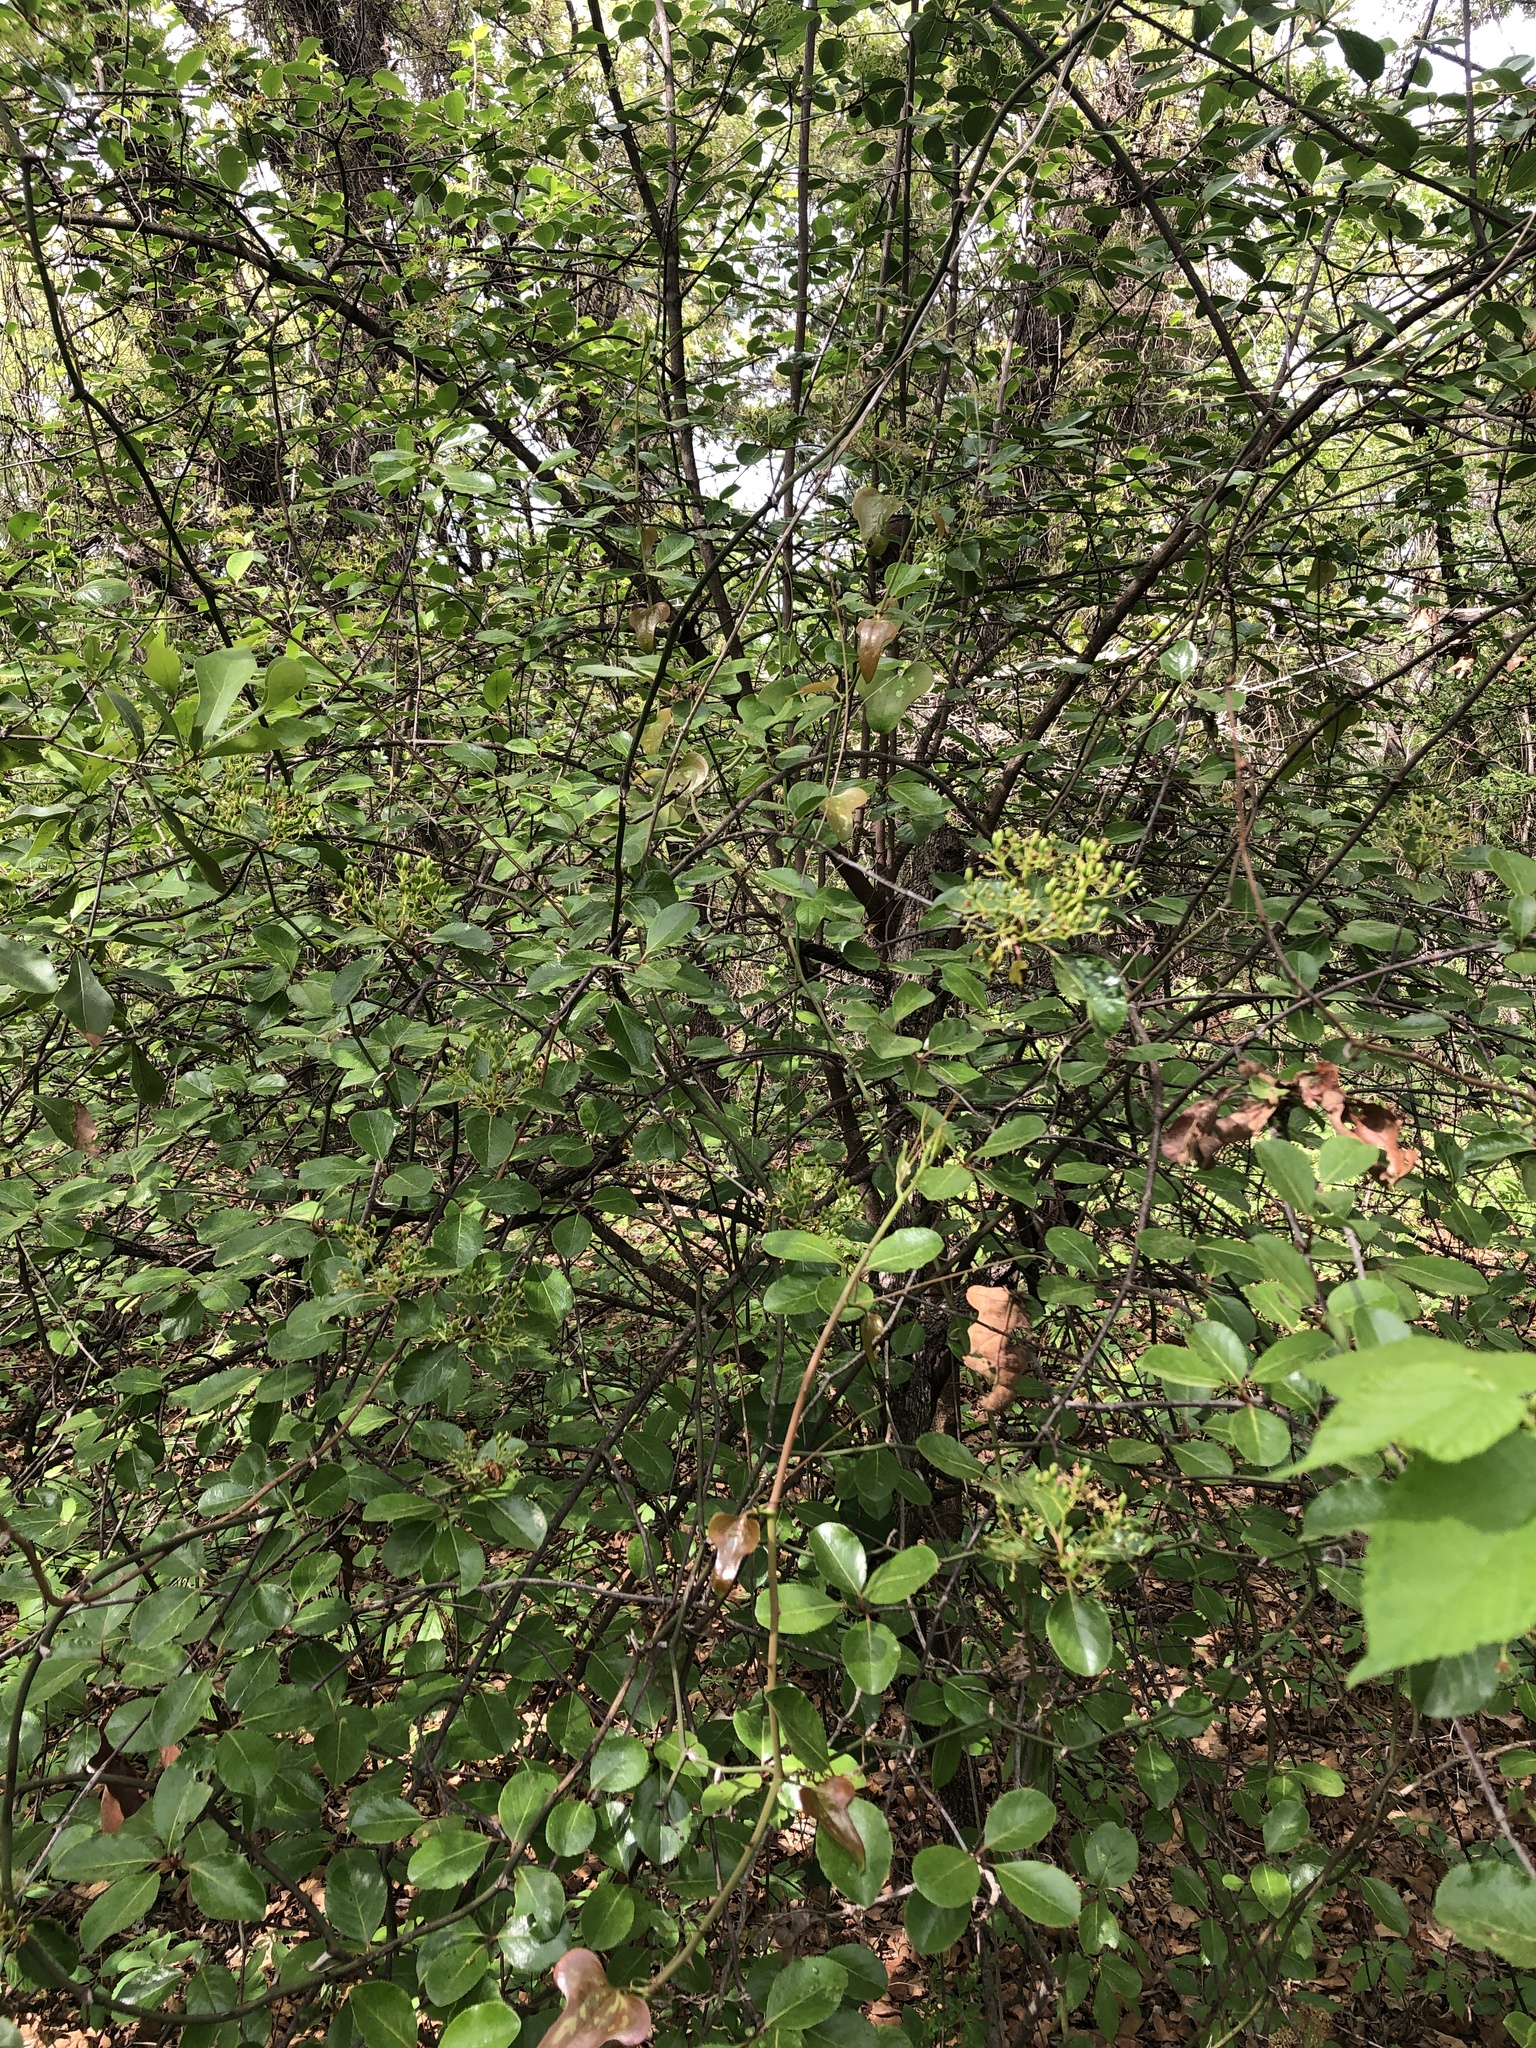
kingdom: Plantae
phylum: Tracheophyta
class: Magnoliopsida
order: Dipsacales
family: Viburnaceae
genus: Viburnum
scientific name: Viburnum rufidulum
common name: Blue haw
